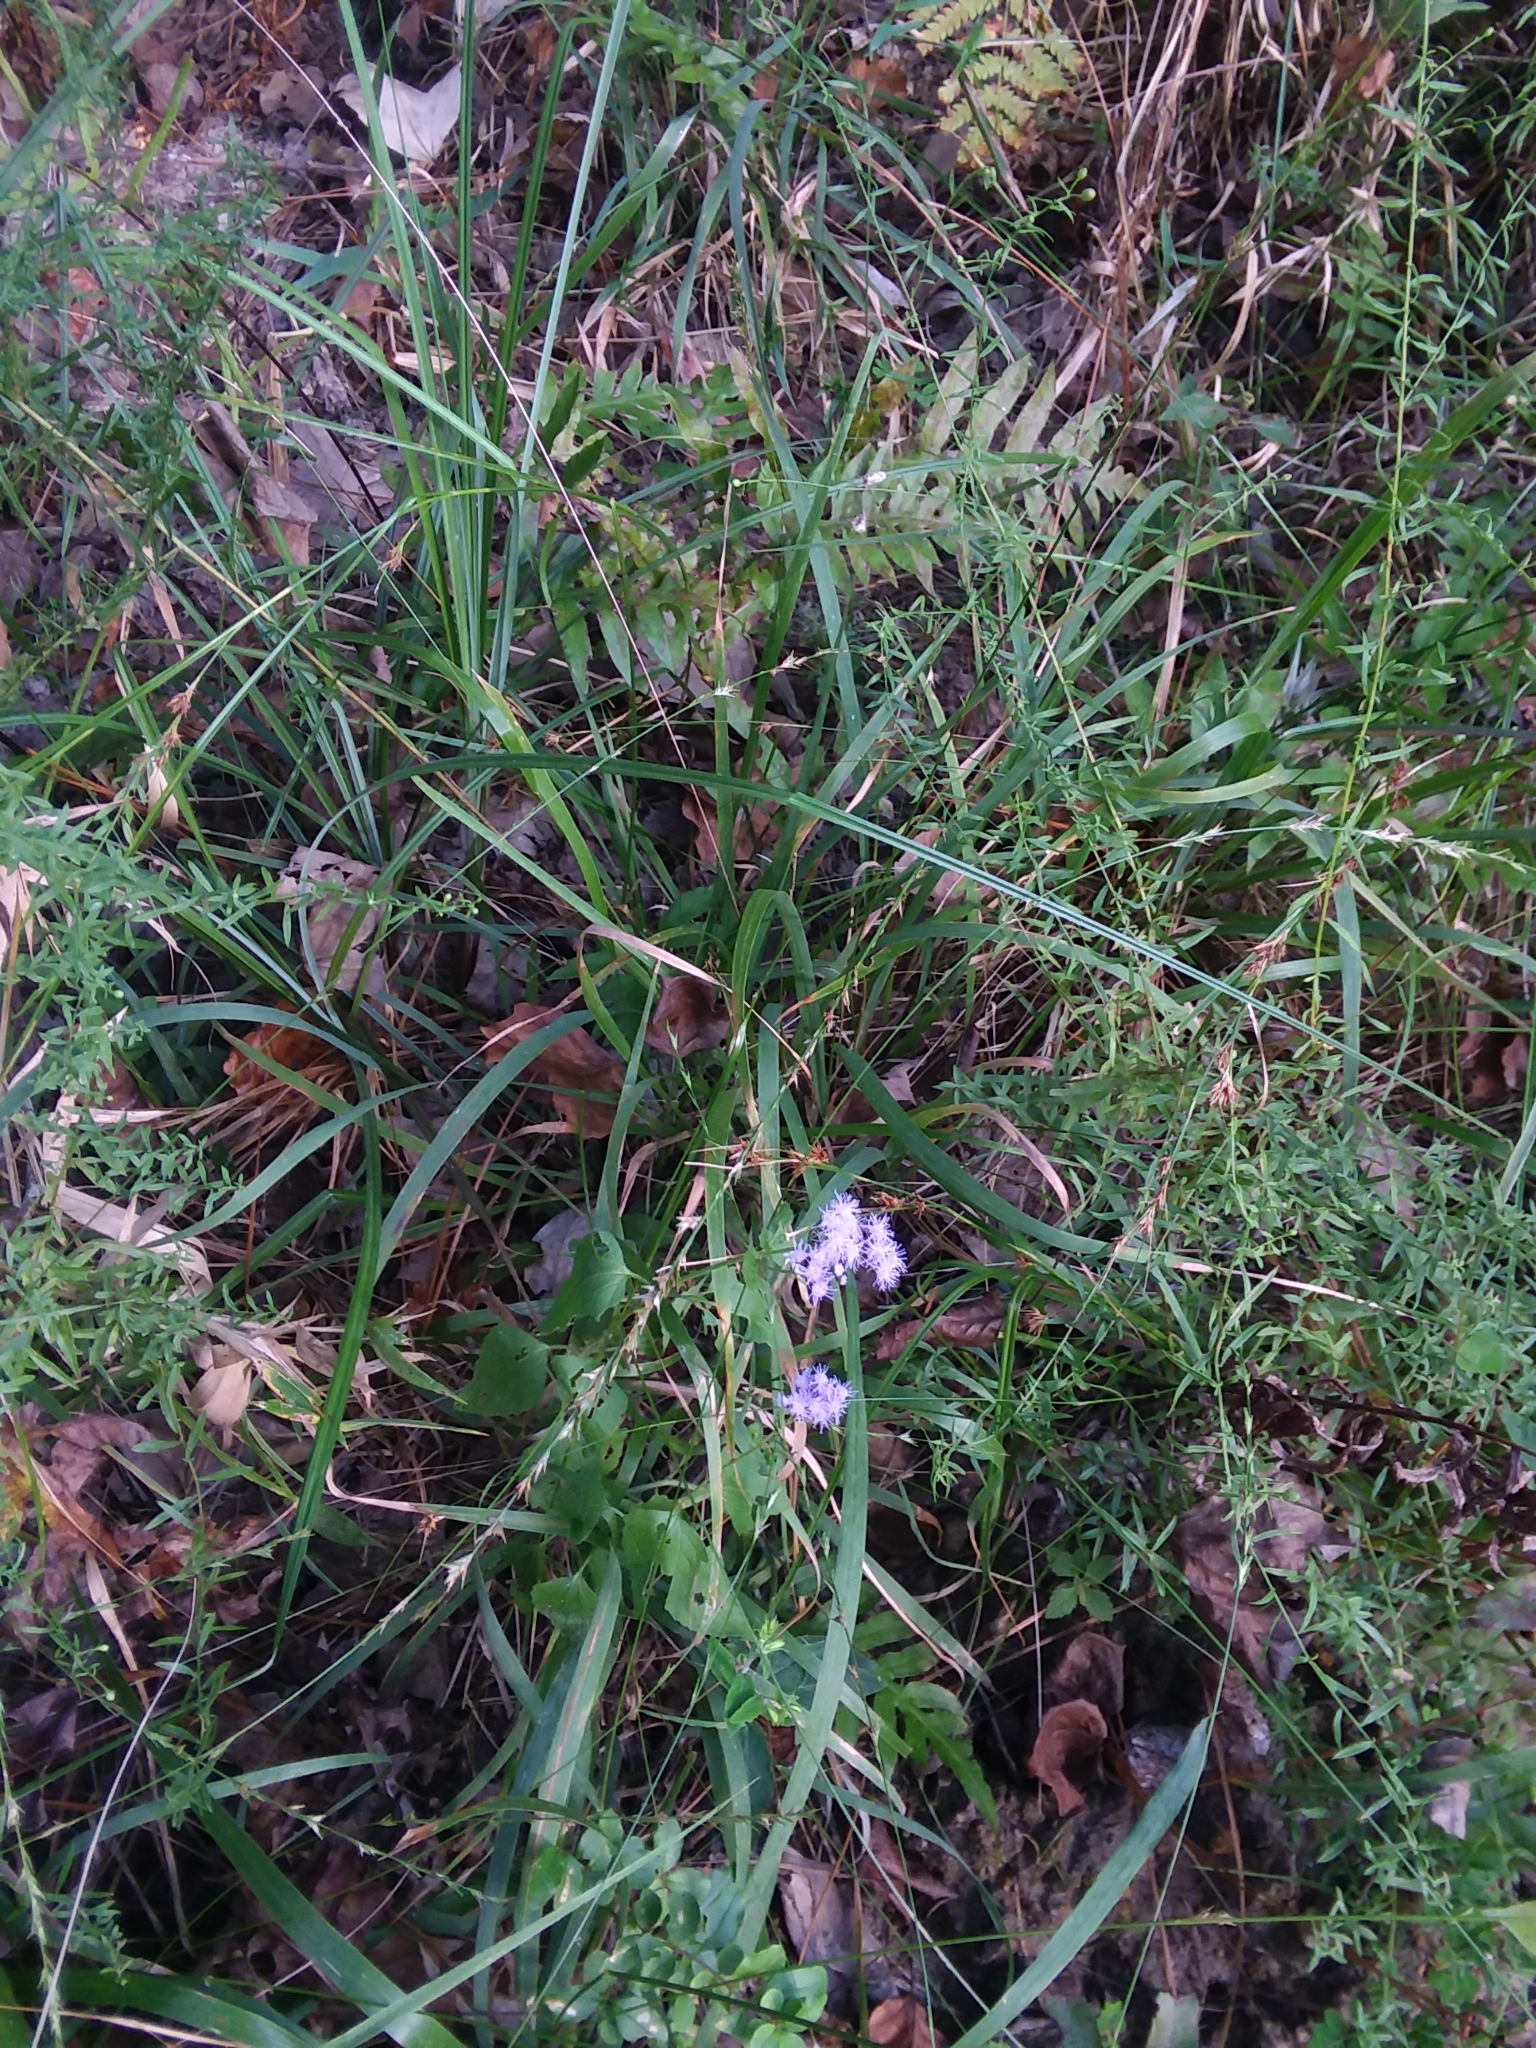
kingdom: Plantae
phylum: Tracheophyta
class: Magnoliopsida
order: Asterales
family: Asteraceae
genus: Conoclinium
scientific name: Conoclinium coelestinum
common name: Blue mistflower
